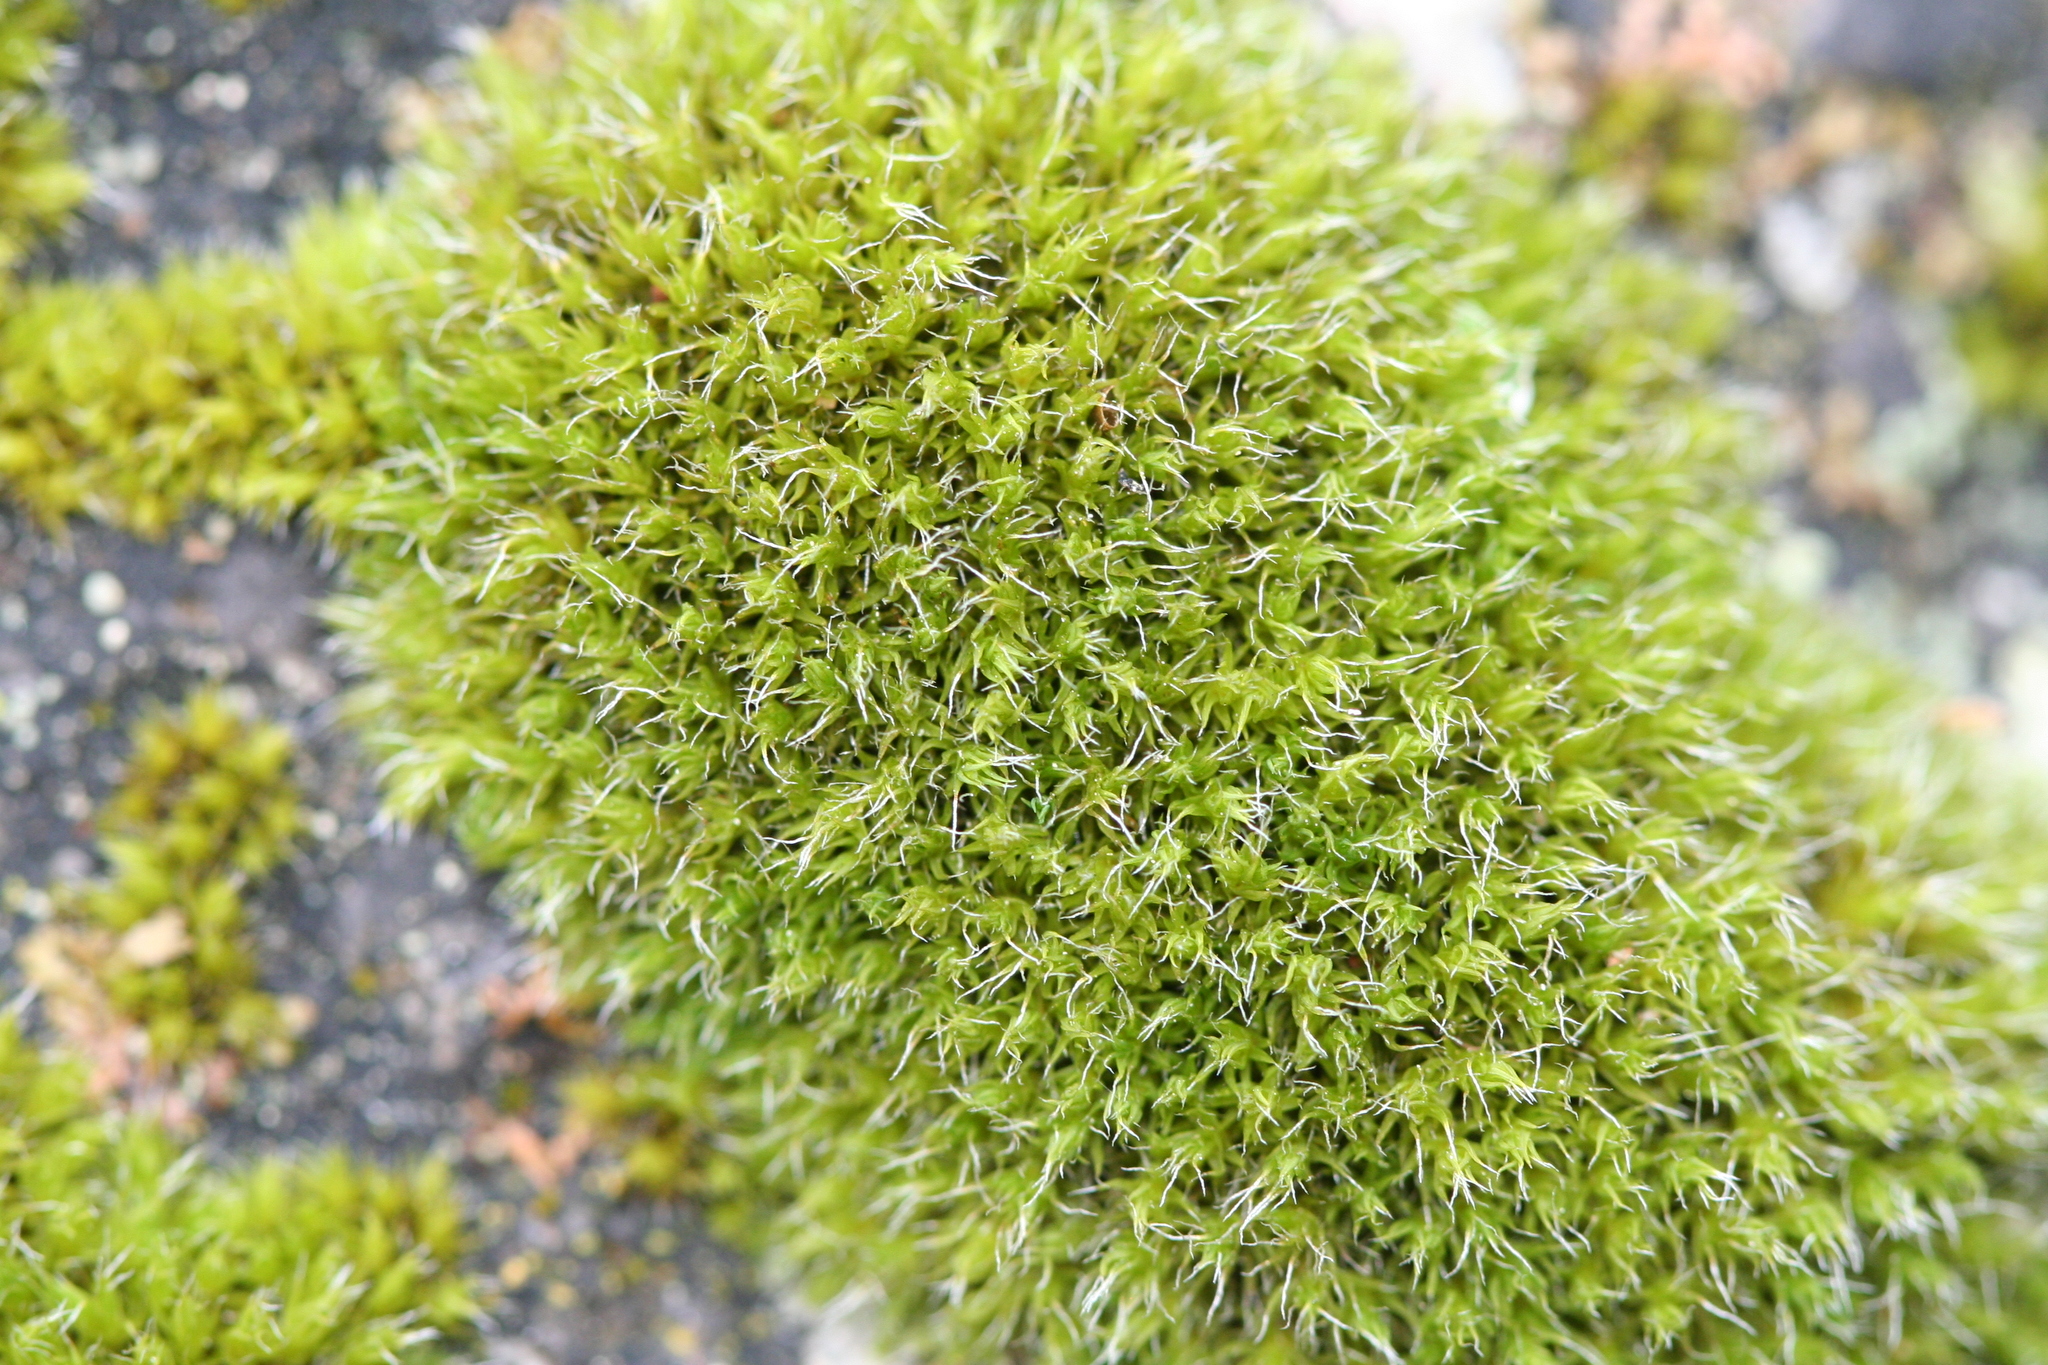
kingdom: Plantae
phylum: Bryophyta
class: Bryopsida
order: Grimmiales
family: Grimmiaceae
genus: Grimmia
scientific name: Grimmia pulvinata
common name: Grey-cushioned grimmia
